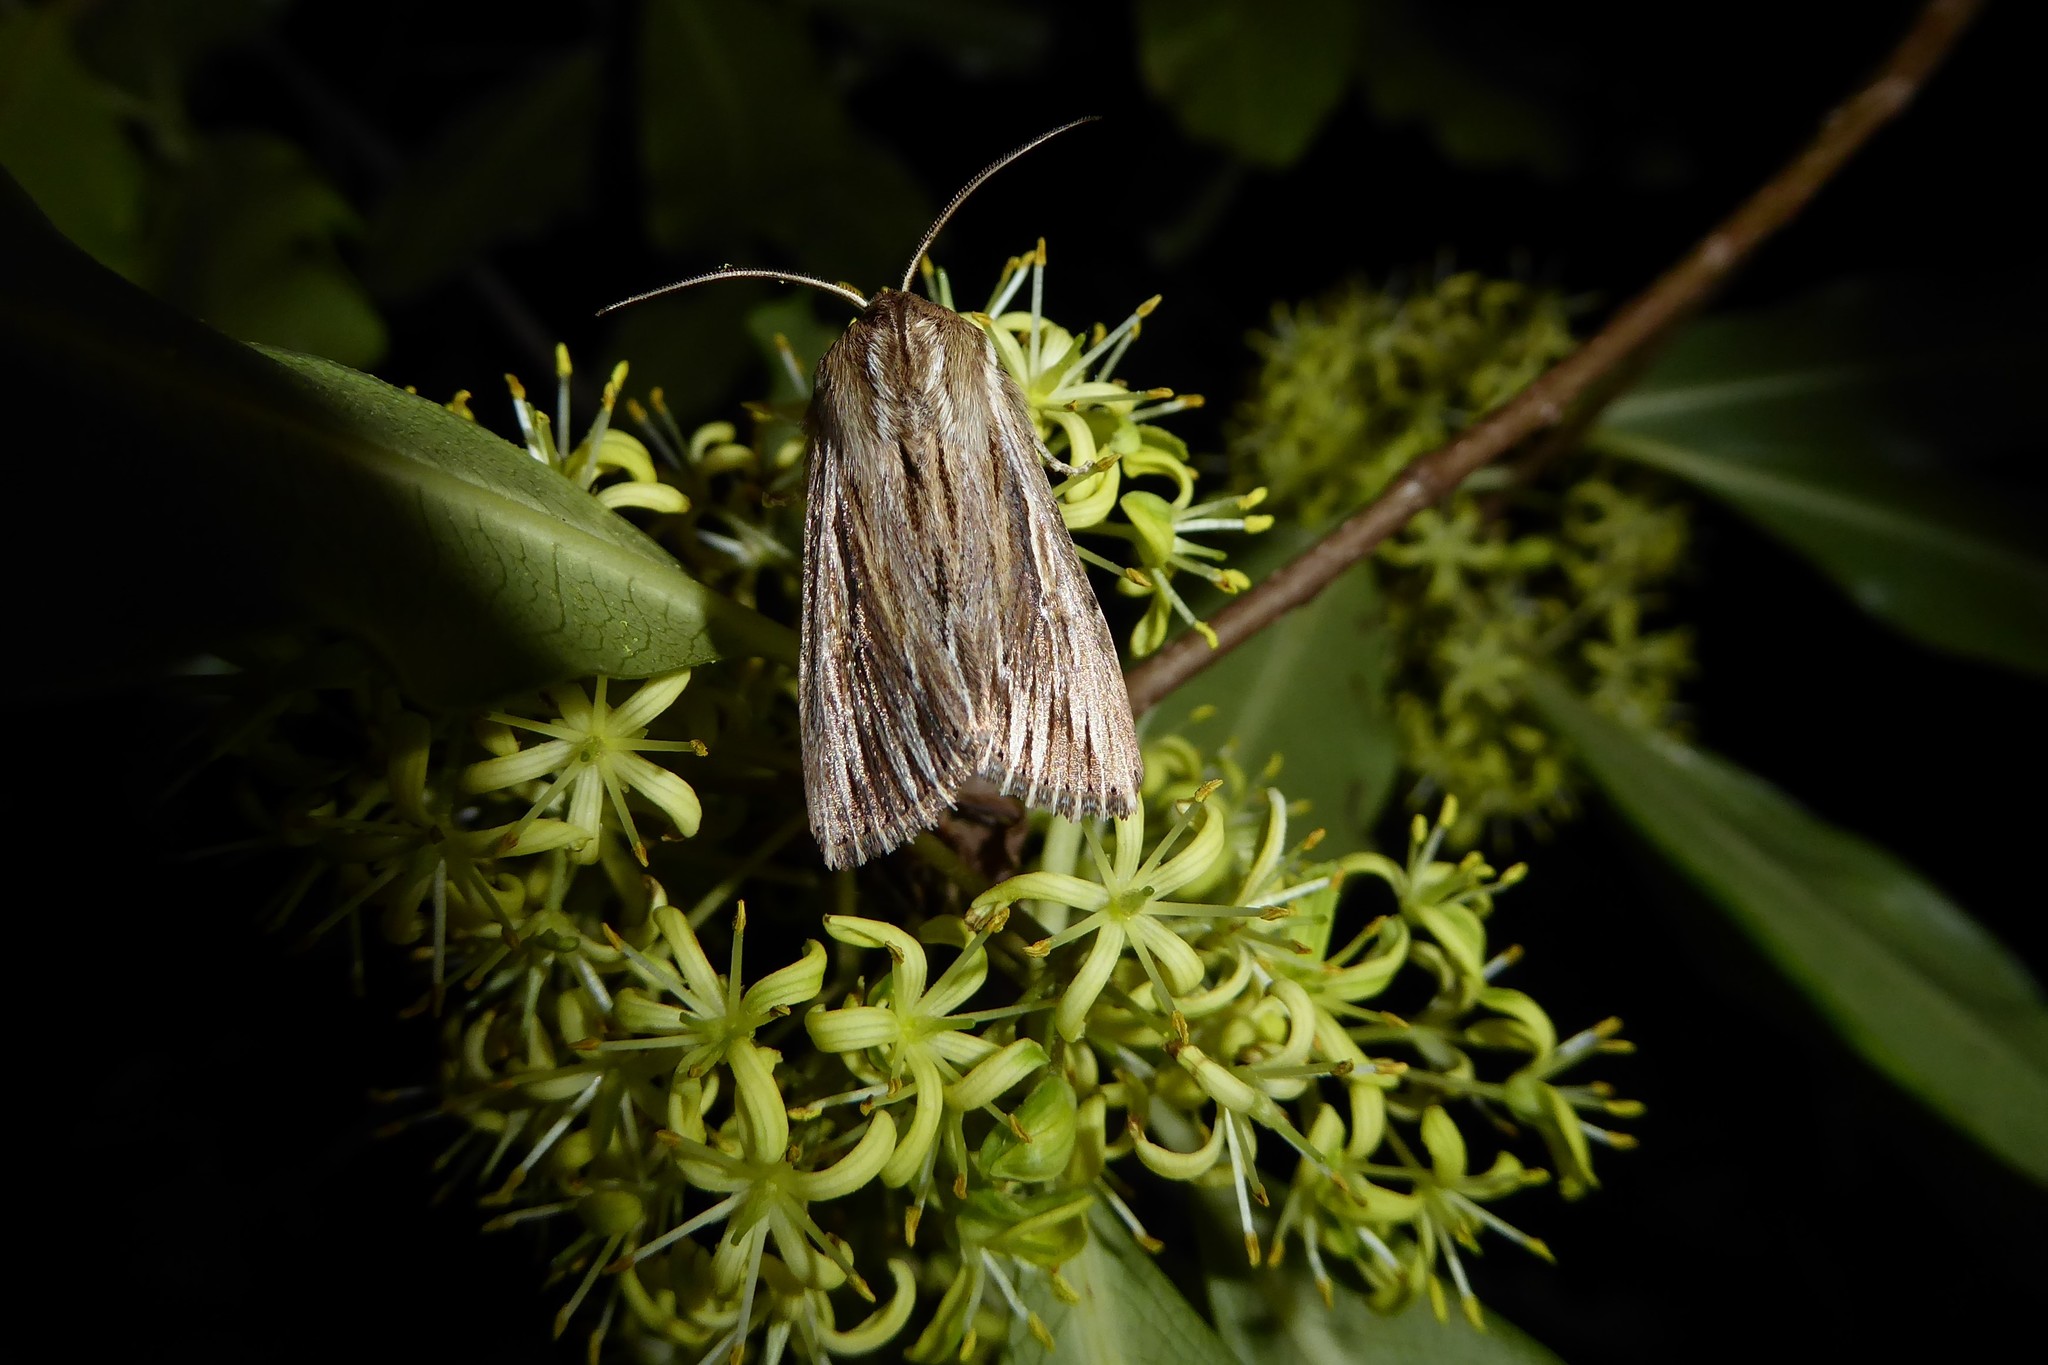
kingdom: Animalia
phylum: Arthropoda
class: Insecta
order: Lepidoptera
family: Noctuidae
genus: Persectania
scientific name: Persectania aversa
